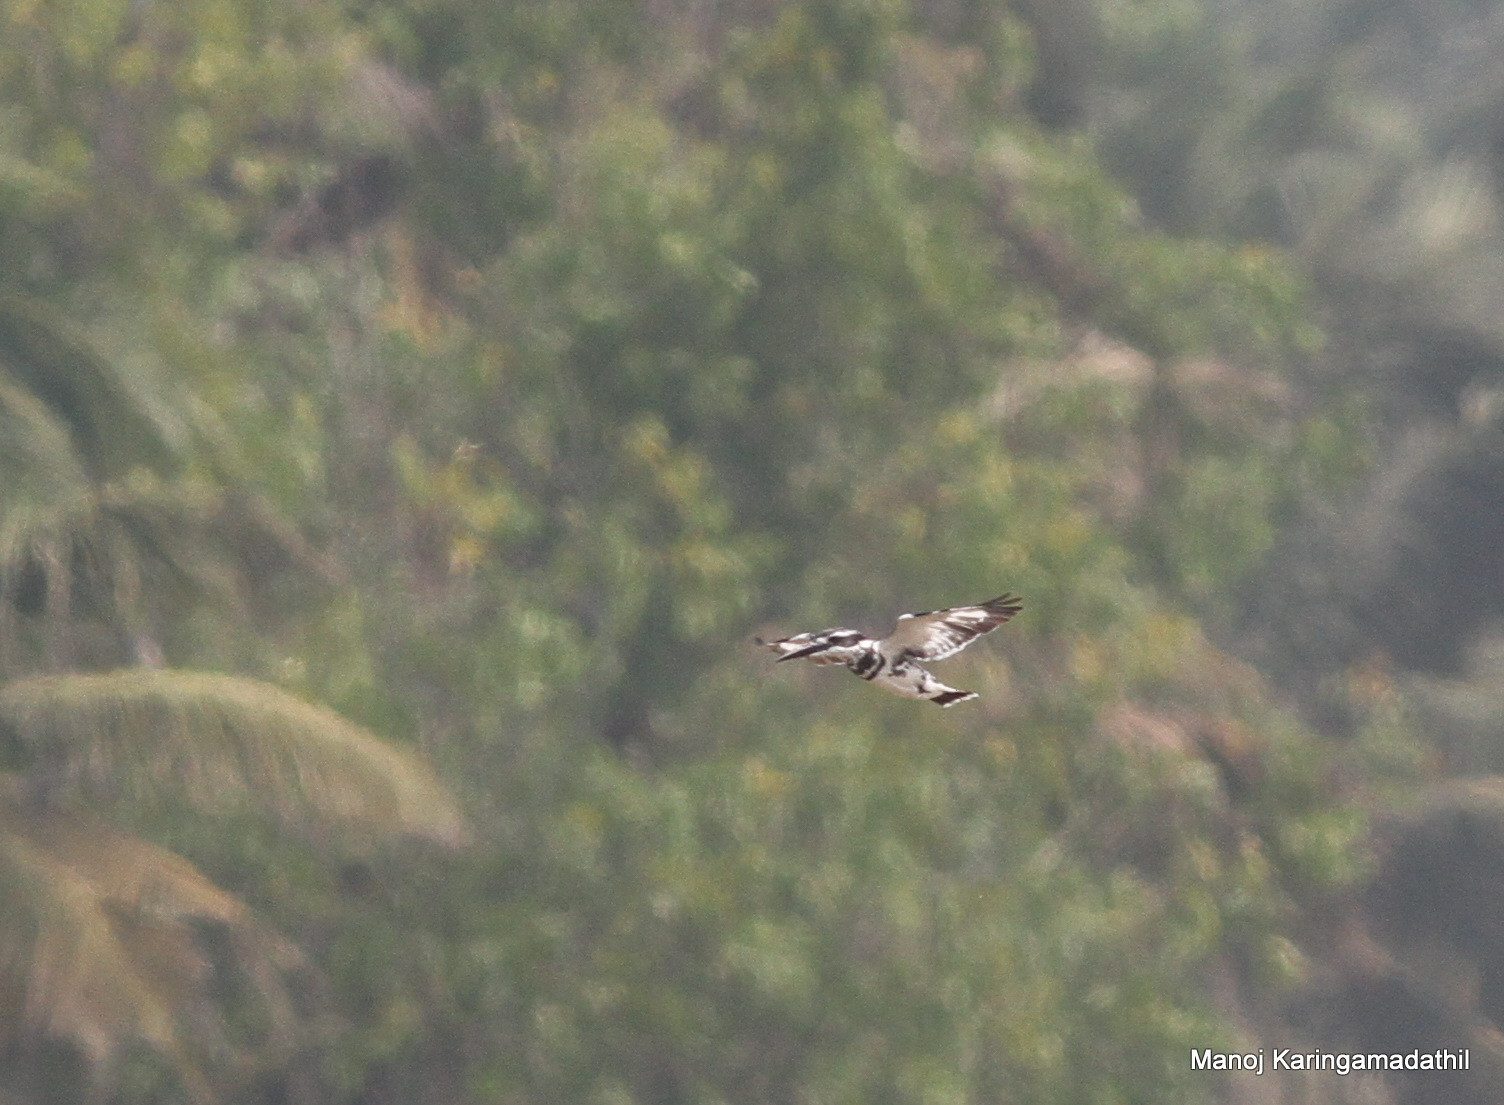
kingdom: Animalia
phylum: Chordata
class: Aves
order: Coraciiformes
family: Alcedinidae
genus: Ceryle
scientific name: Ceryle rudis
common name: Pied kingfisher
